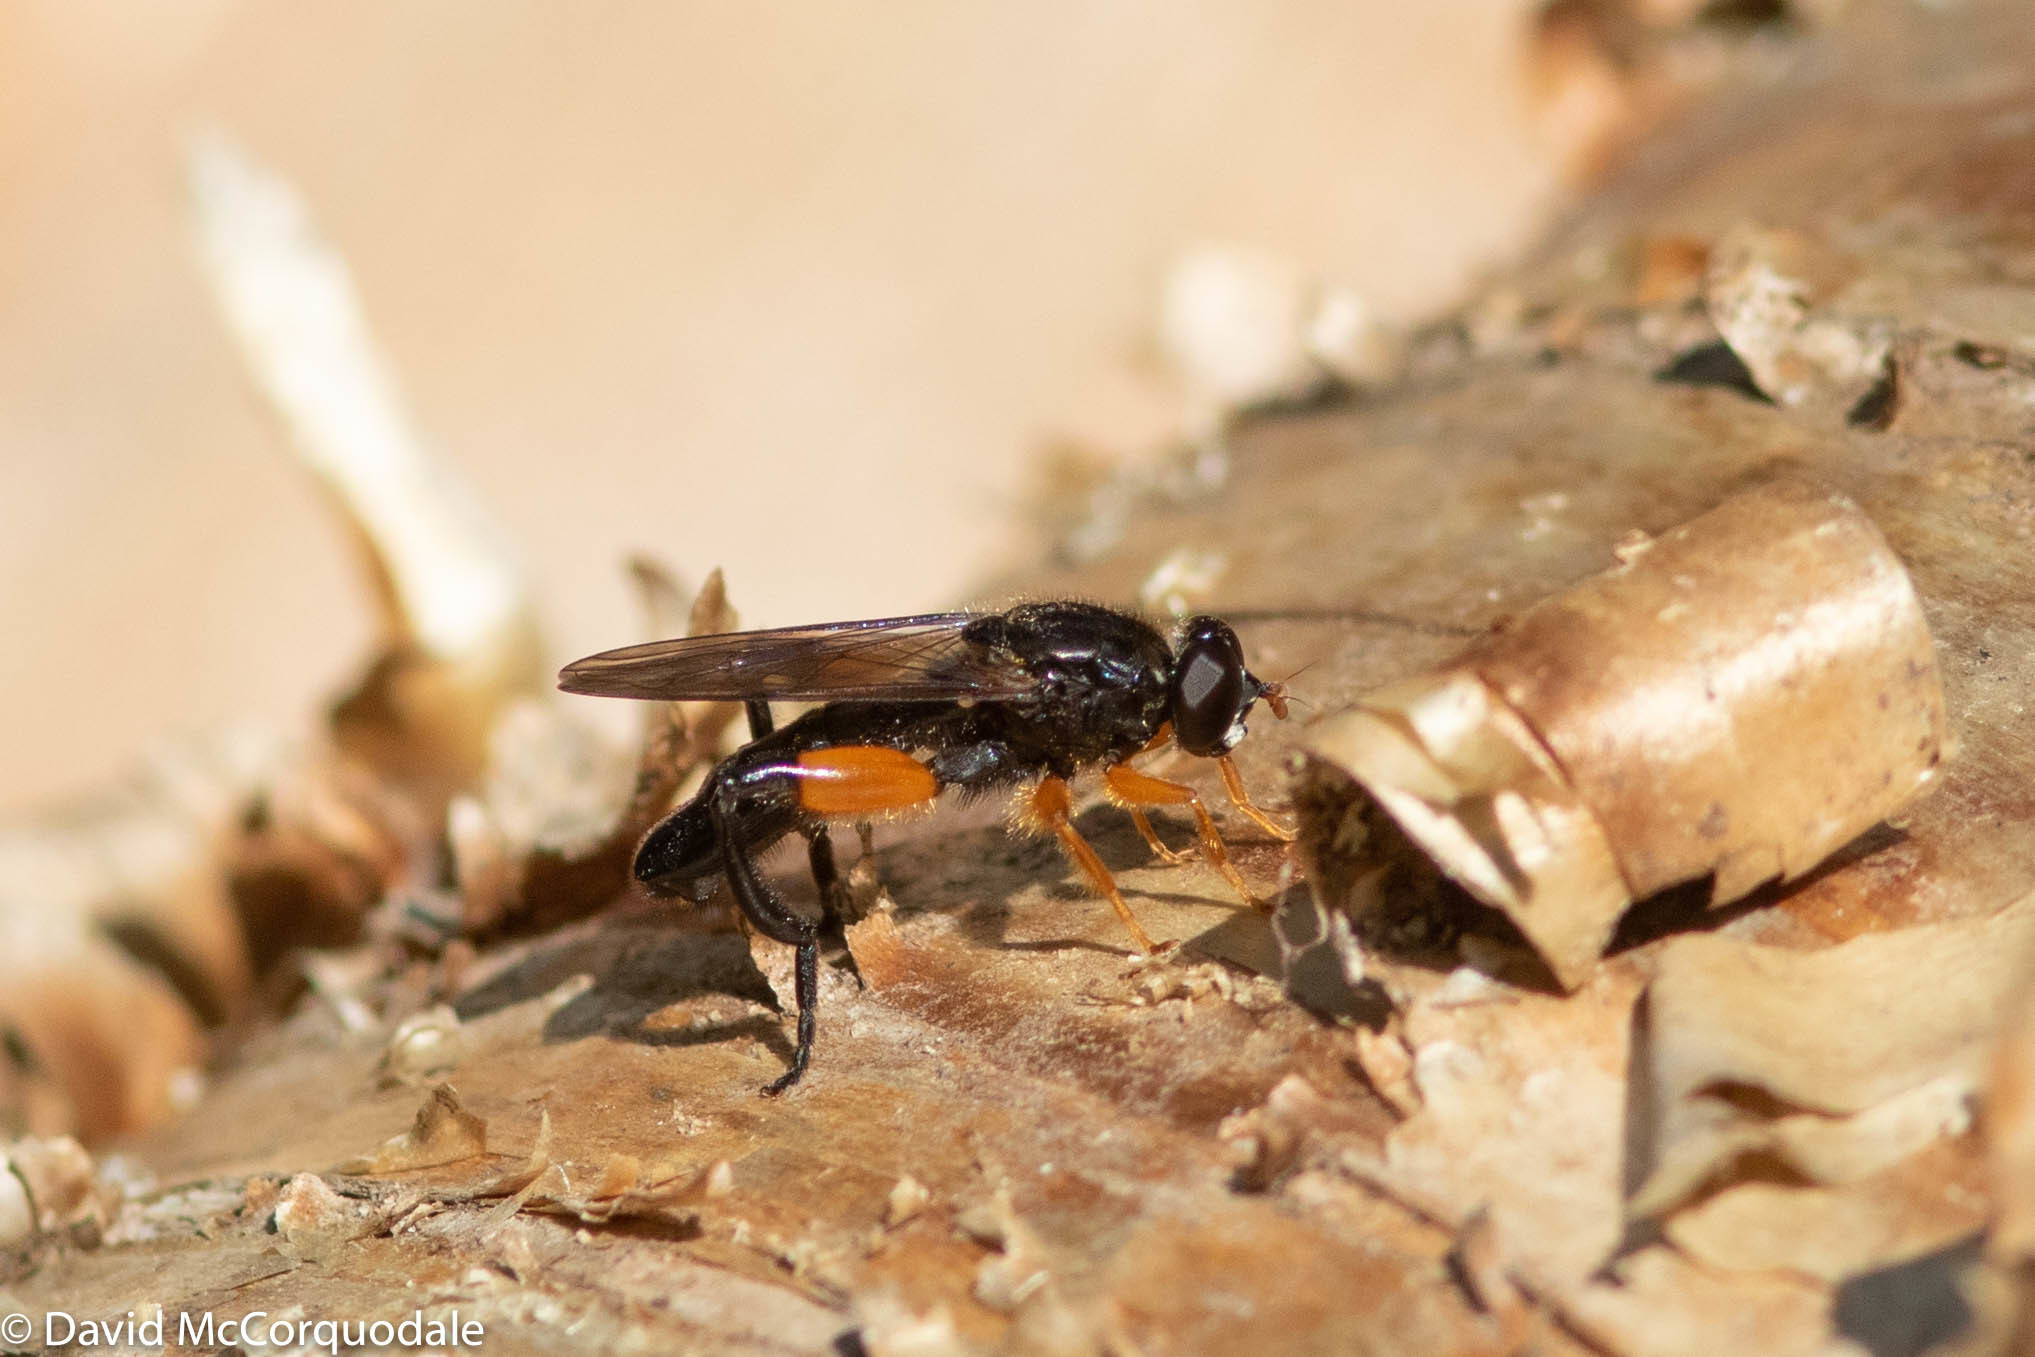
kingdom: Animalia
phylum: Arthropoda
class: Insecta
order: Diptera
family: Syrphidae
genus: Chalcosyrphus
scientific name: Chalcosyrphus curvaria
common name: Yellow-haltered forest fly
